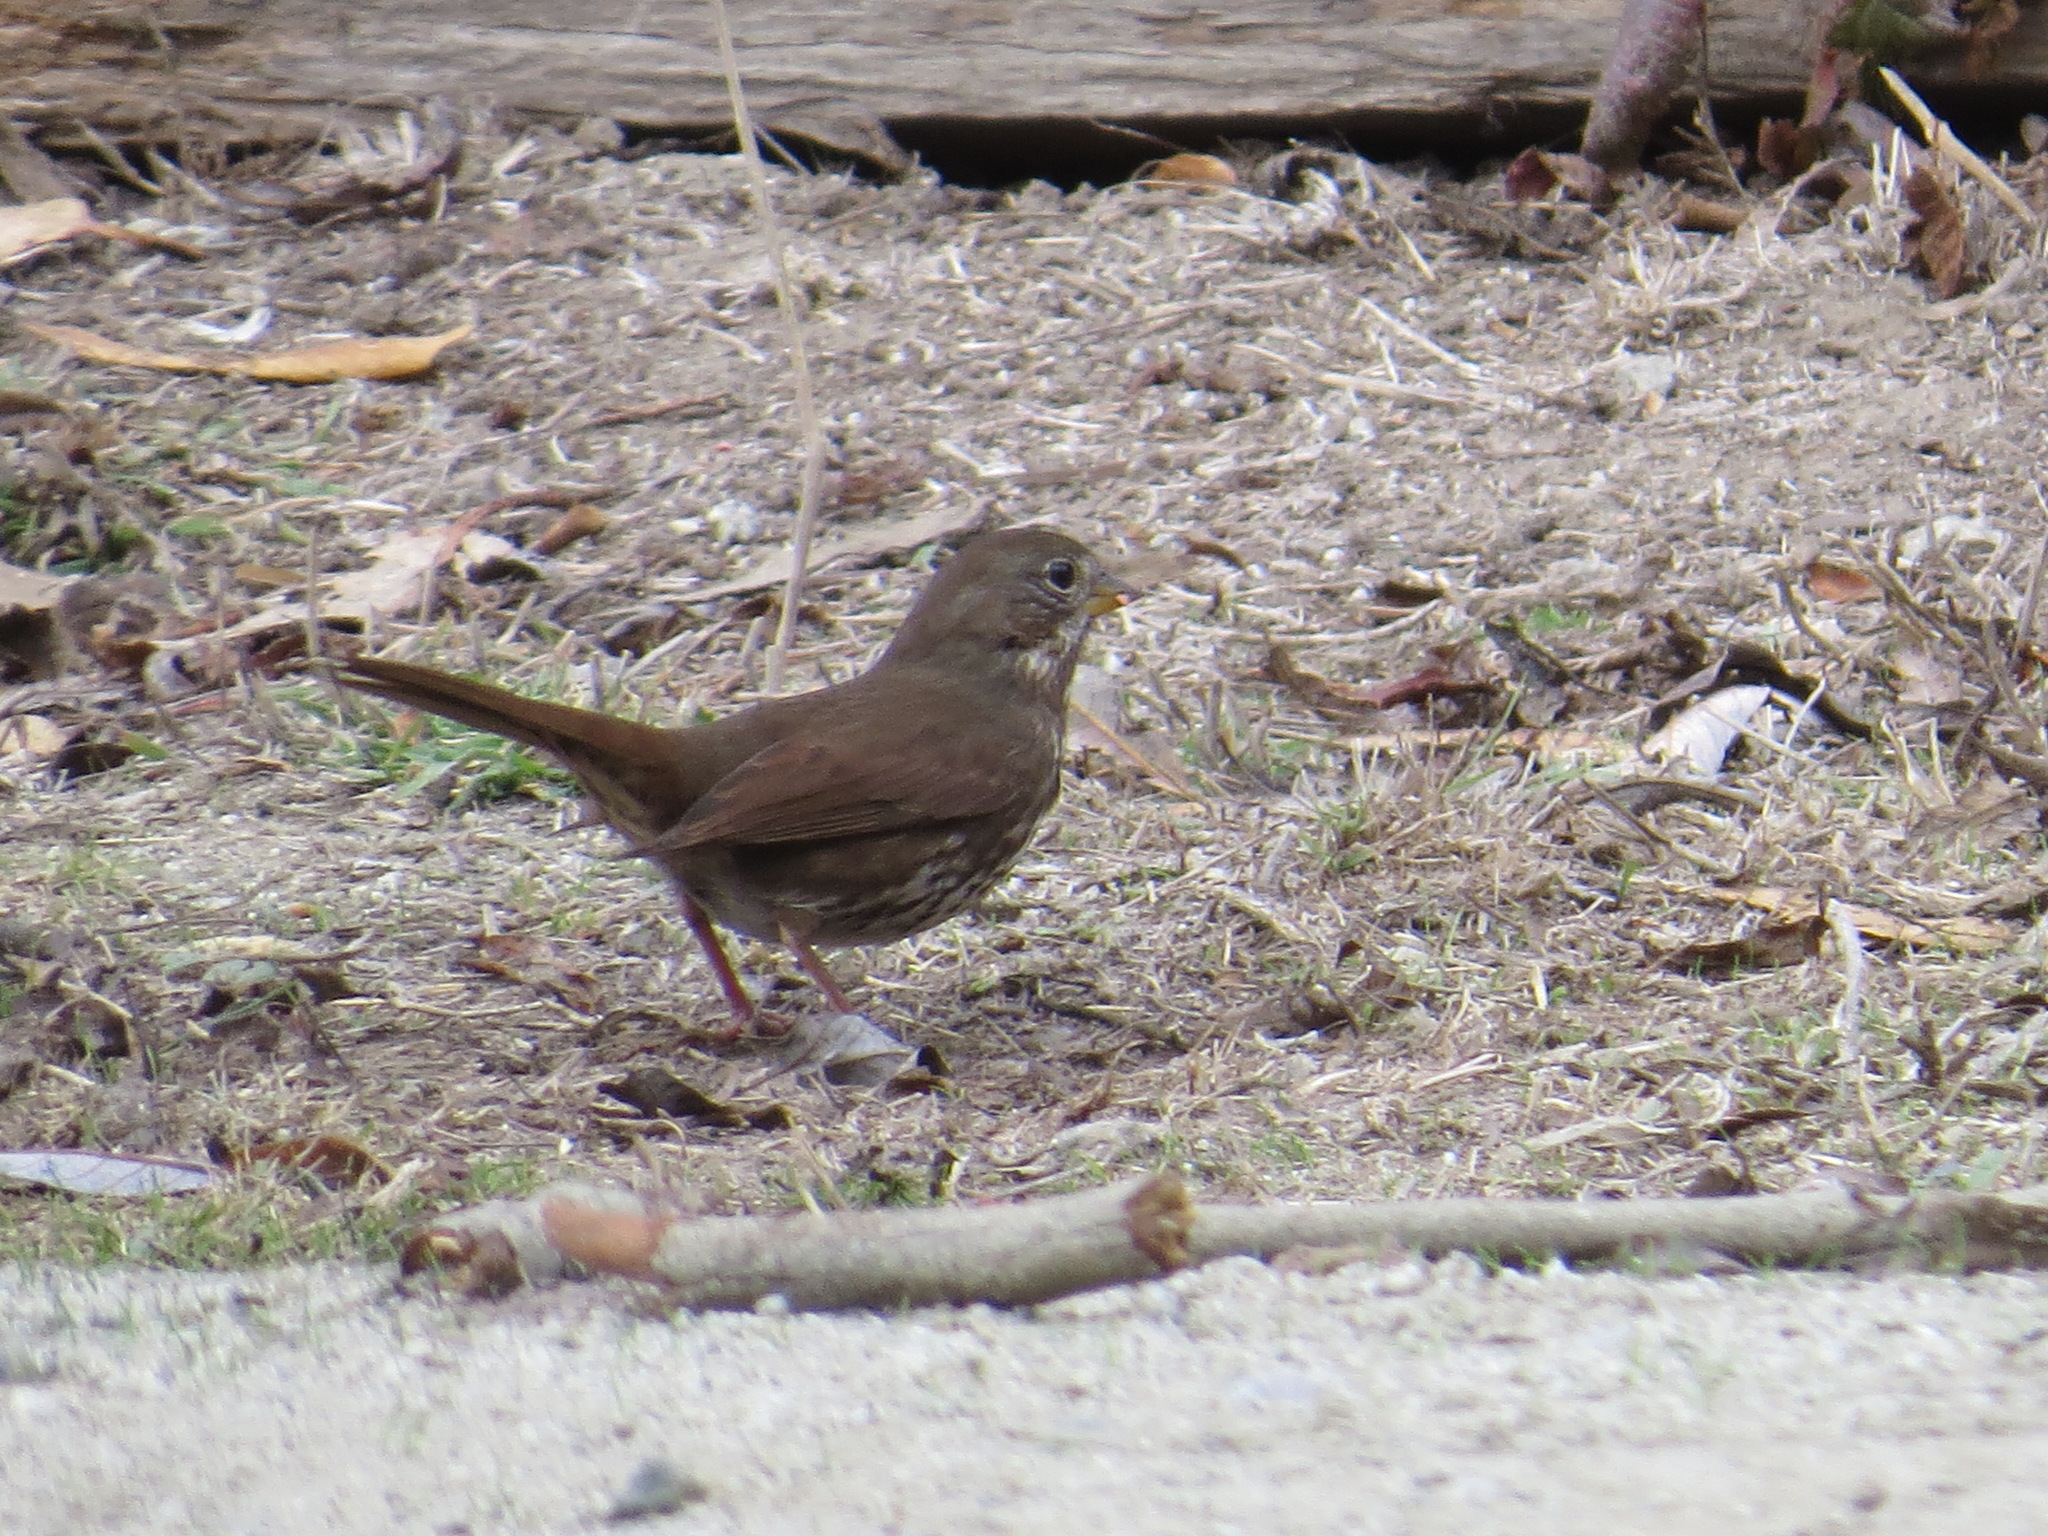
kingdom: Animalia
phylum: Chordata
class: Aves
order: Passeriformes
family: Passerellidae
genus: Passerella
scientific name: Passerella iliaca
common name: Fox sparrow
